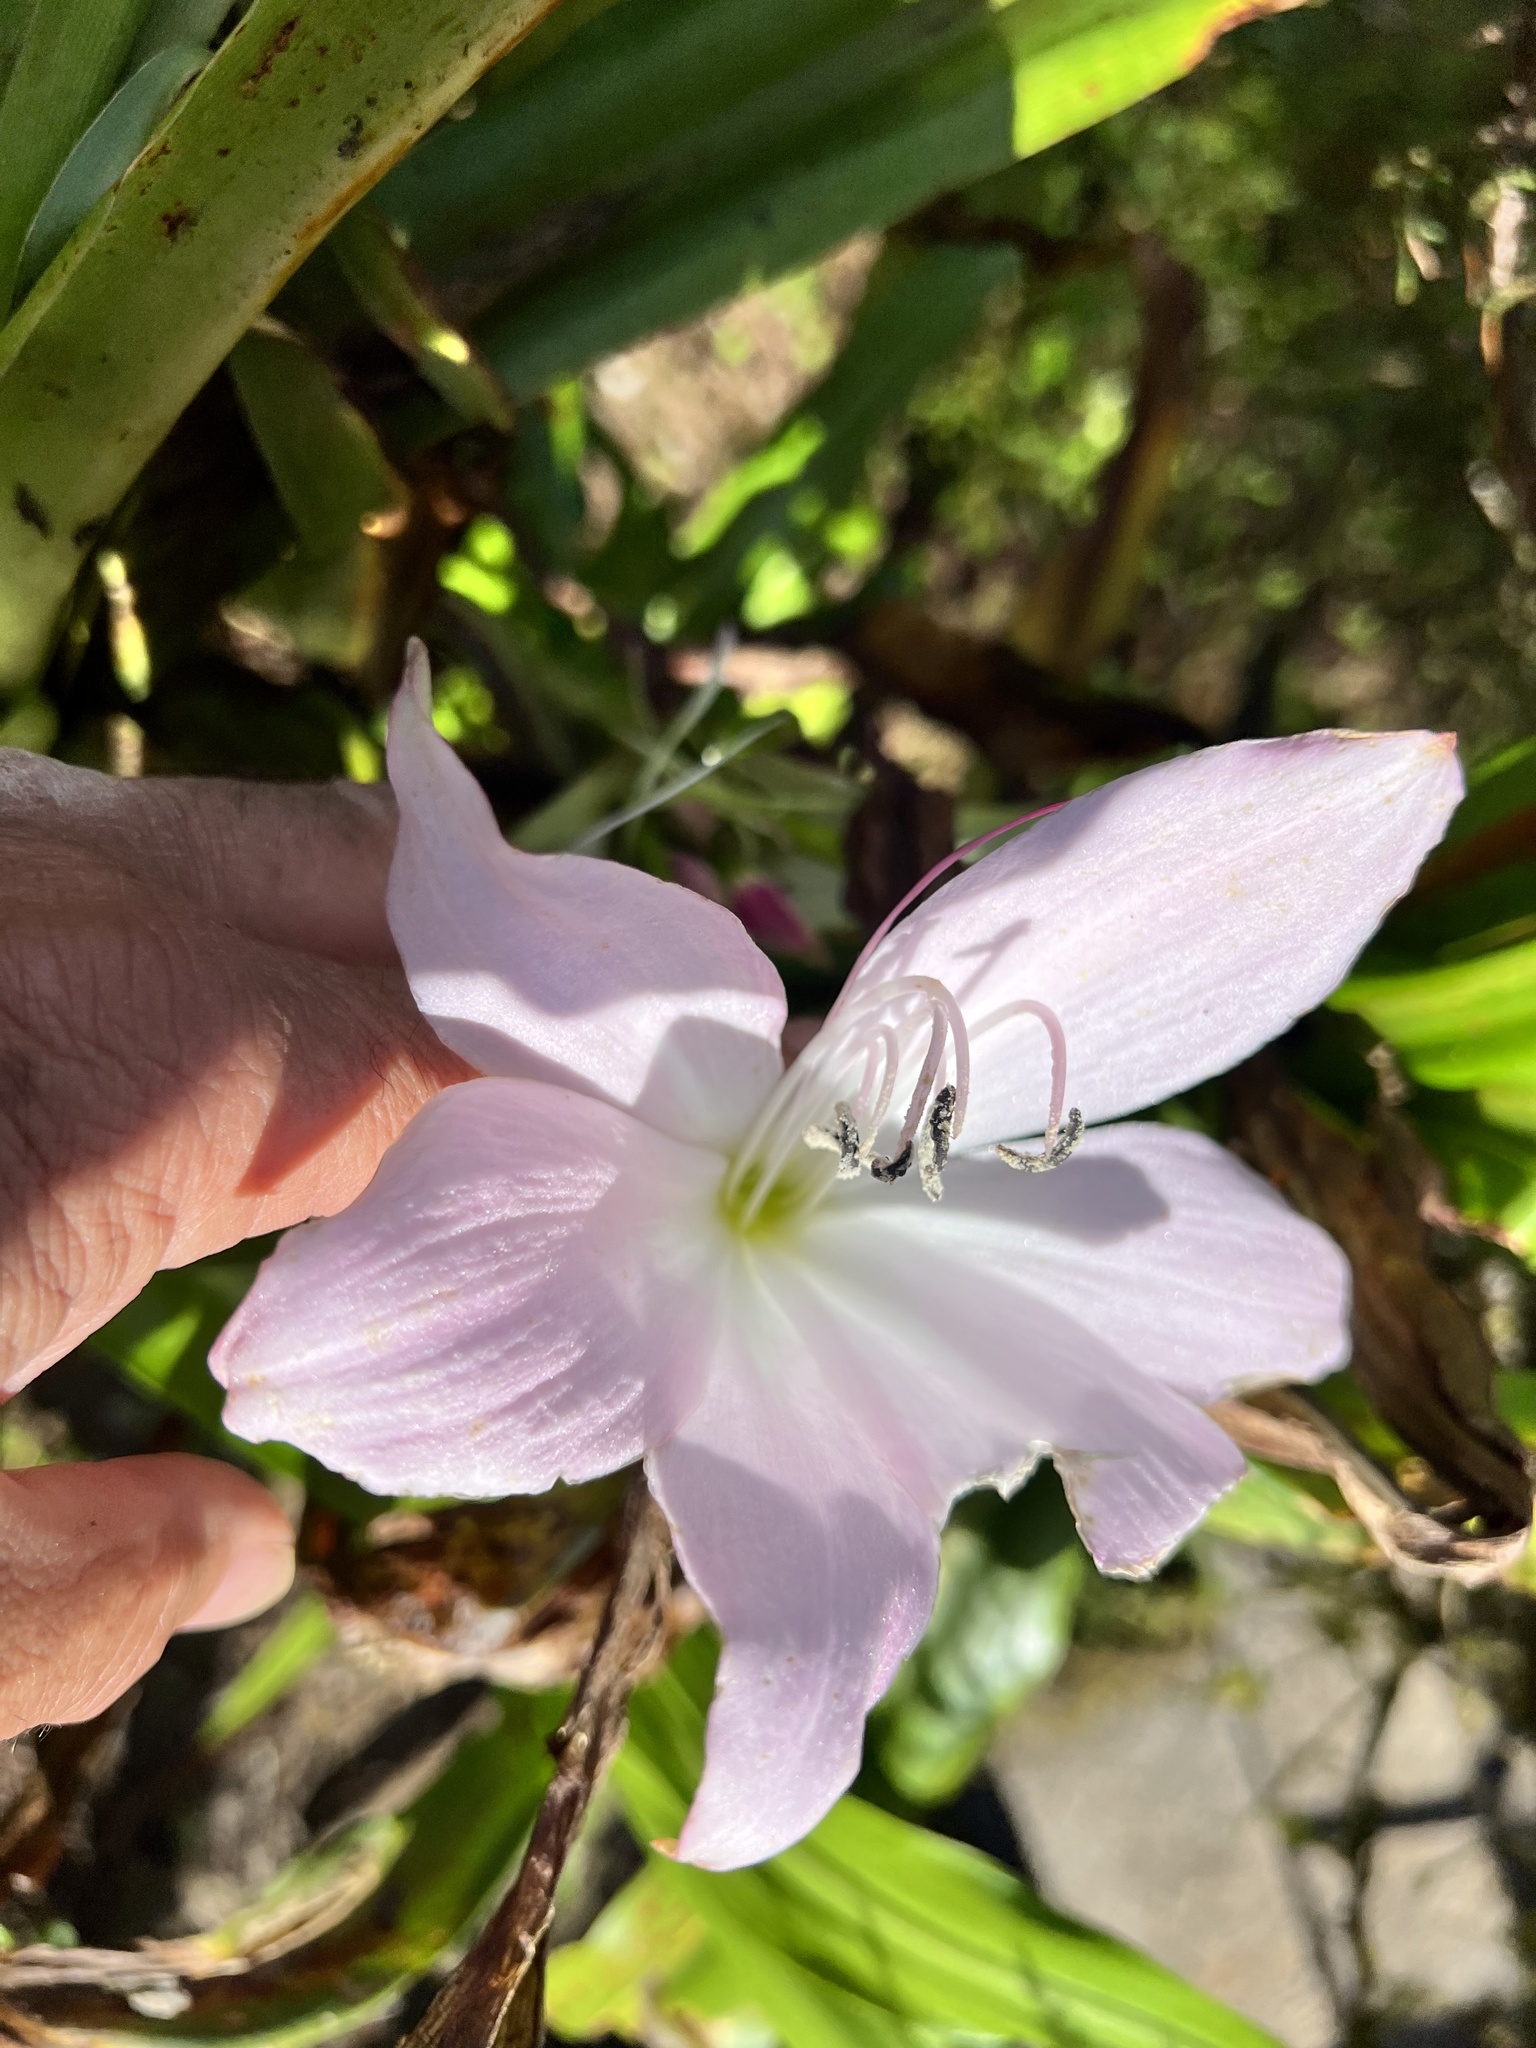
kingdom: Plantae
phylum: Tracheophyta
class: Liliopsida
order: Asparagales
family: Amaryllidaceae
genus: Crinum
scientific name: Crinum moorei
